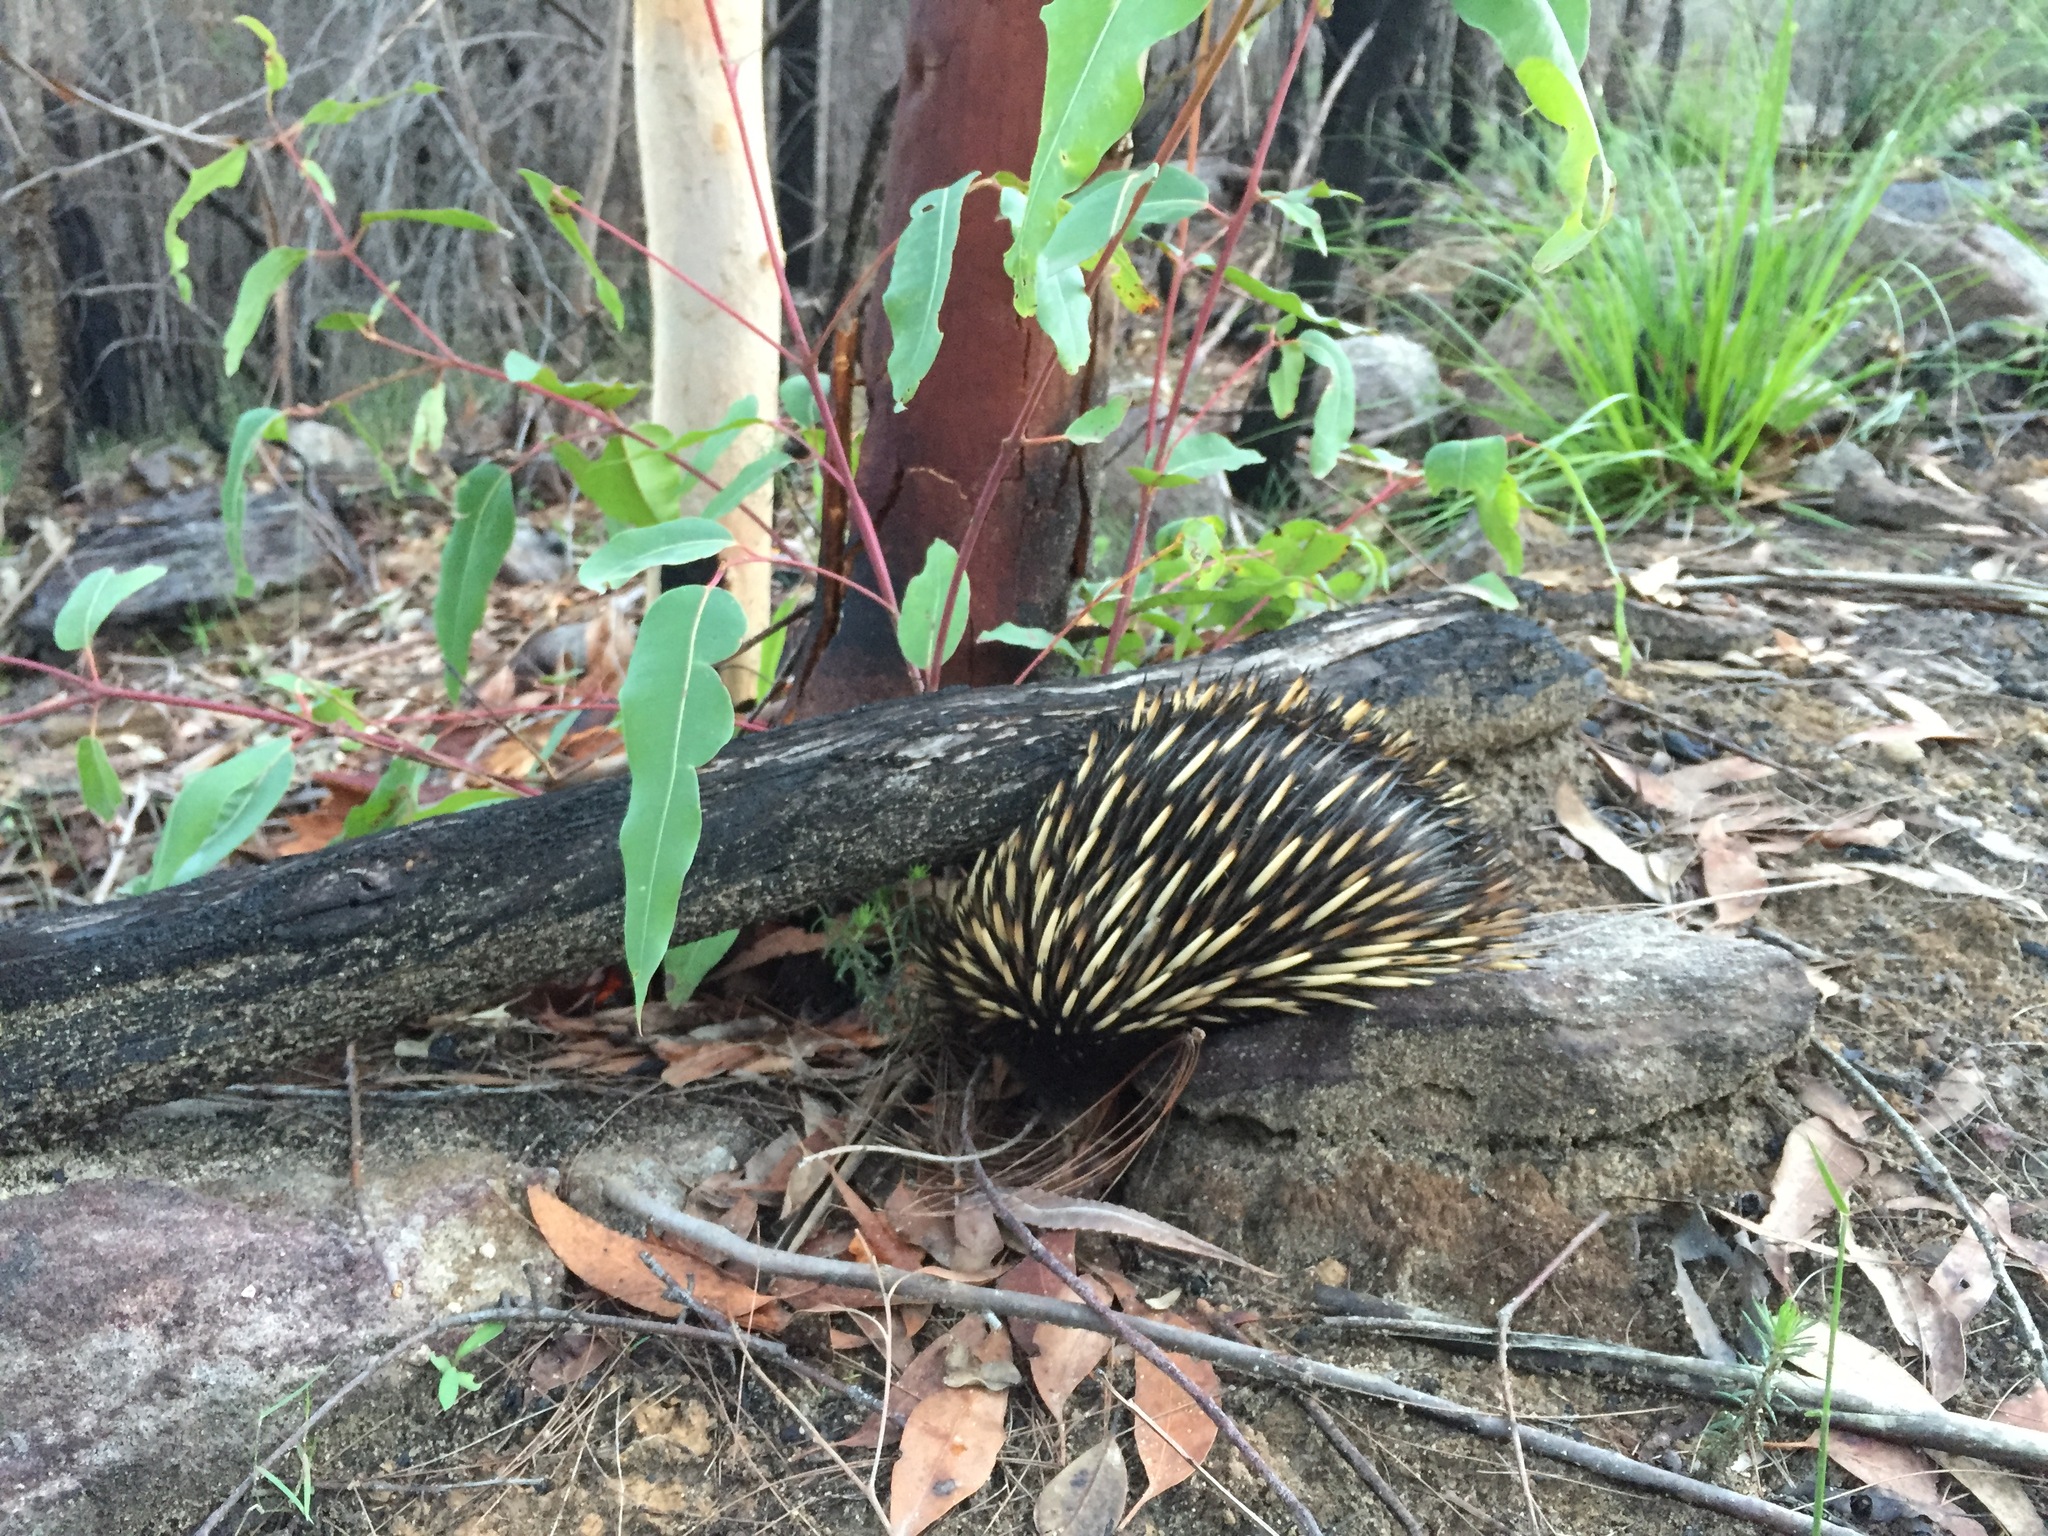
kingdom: Animalia
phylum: Chordata
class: Mammalia
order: Monotremata
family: Tachyglossidae
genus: Tachyglossus
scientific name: Tachyglossus aculeatus
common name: Short-beaked echidna
